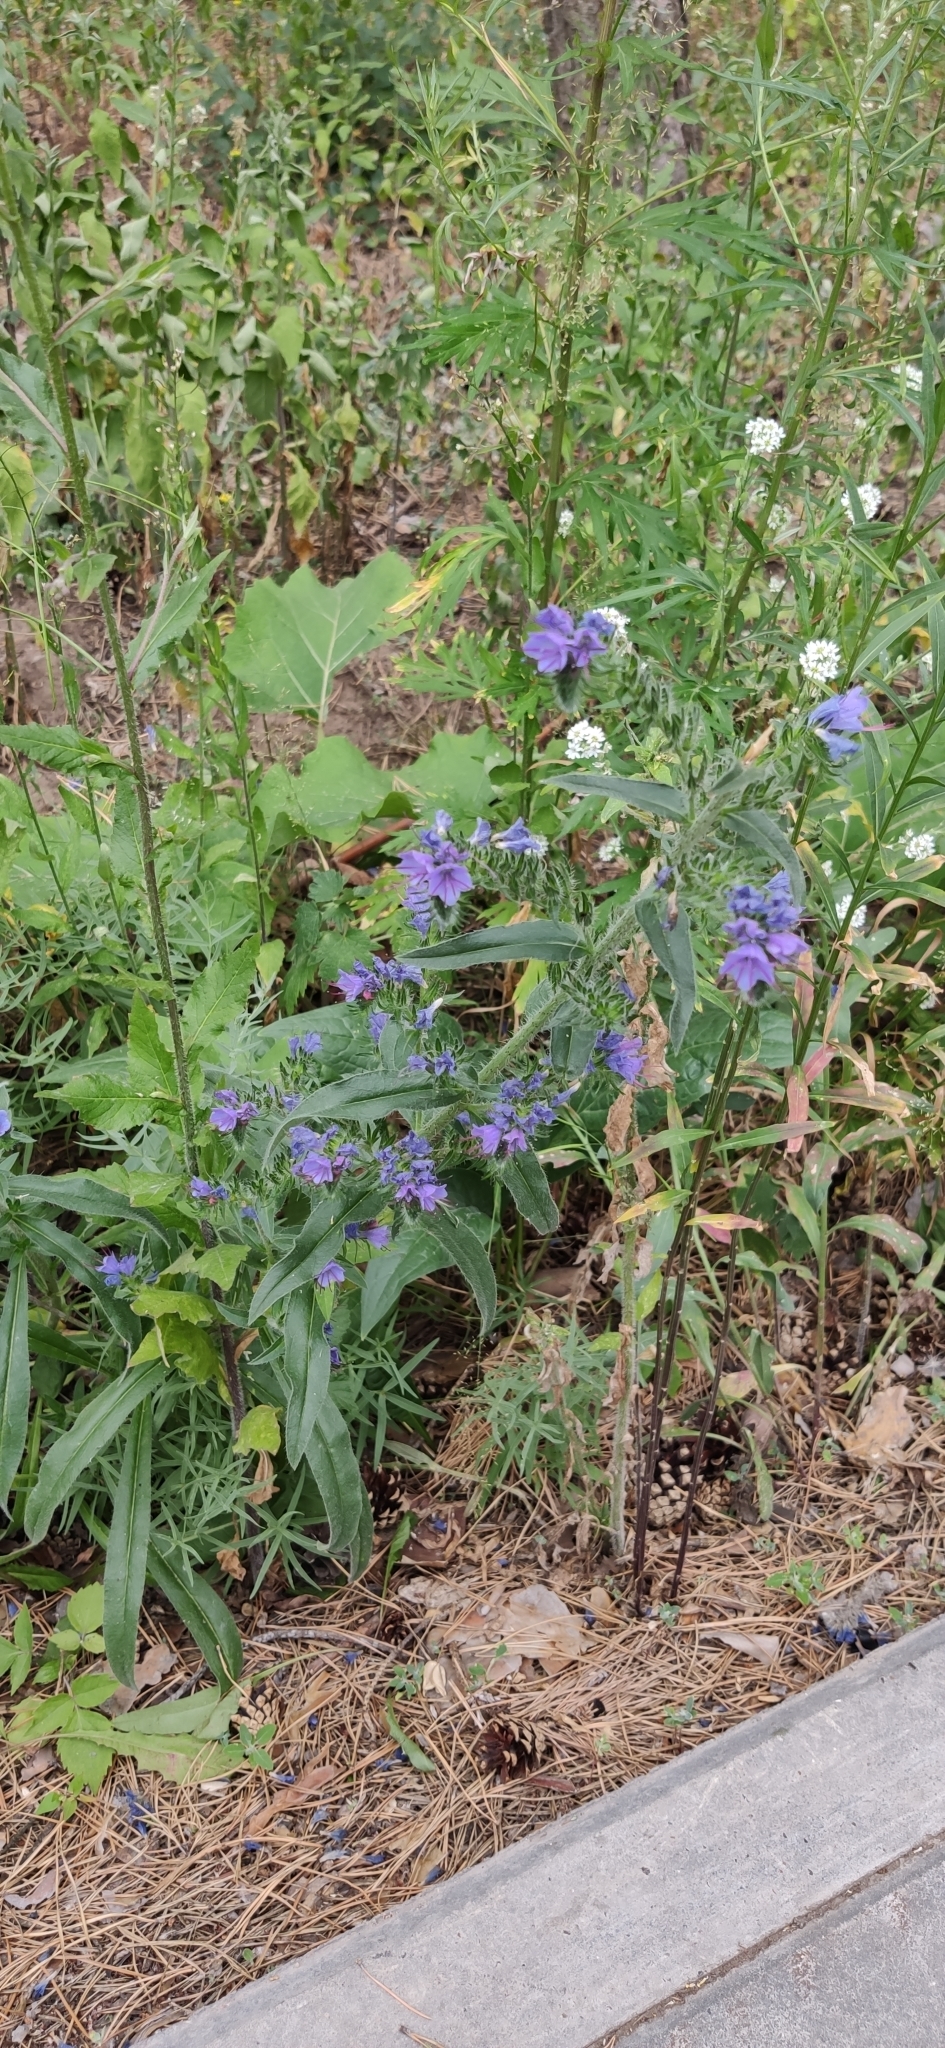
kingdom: Plantae
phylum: Tracheophyta
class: Magnoliopsida
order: Boraginales
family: Boraginaceae
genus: Echium
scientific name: Echium vulgare
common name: Common viper's bugloss
